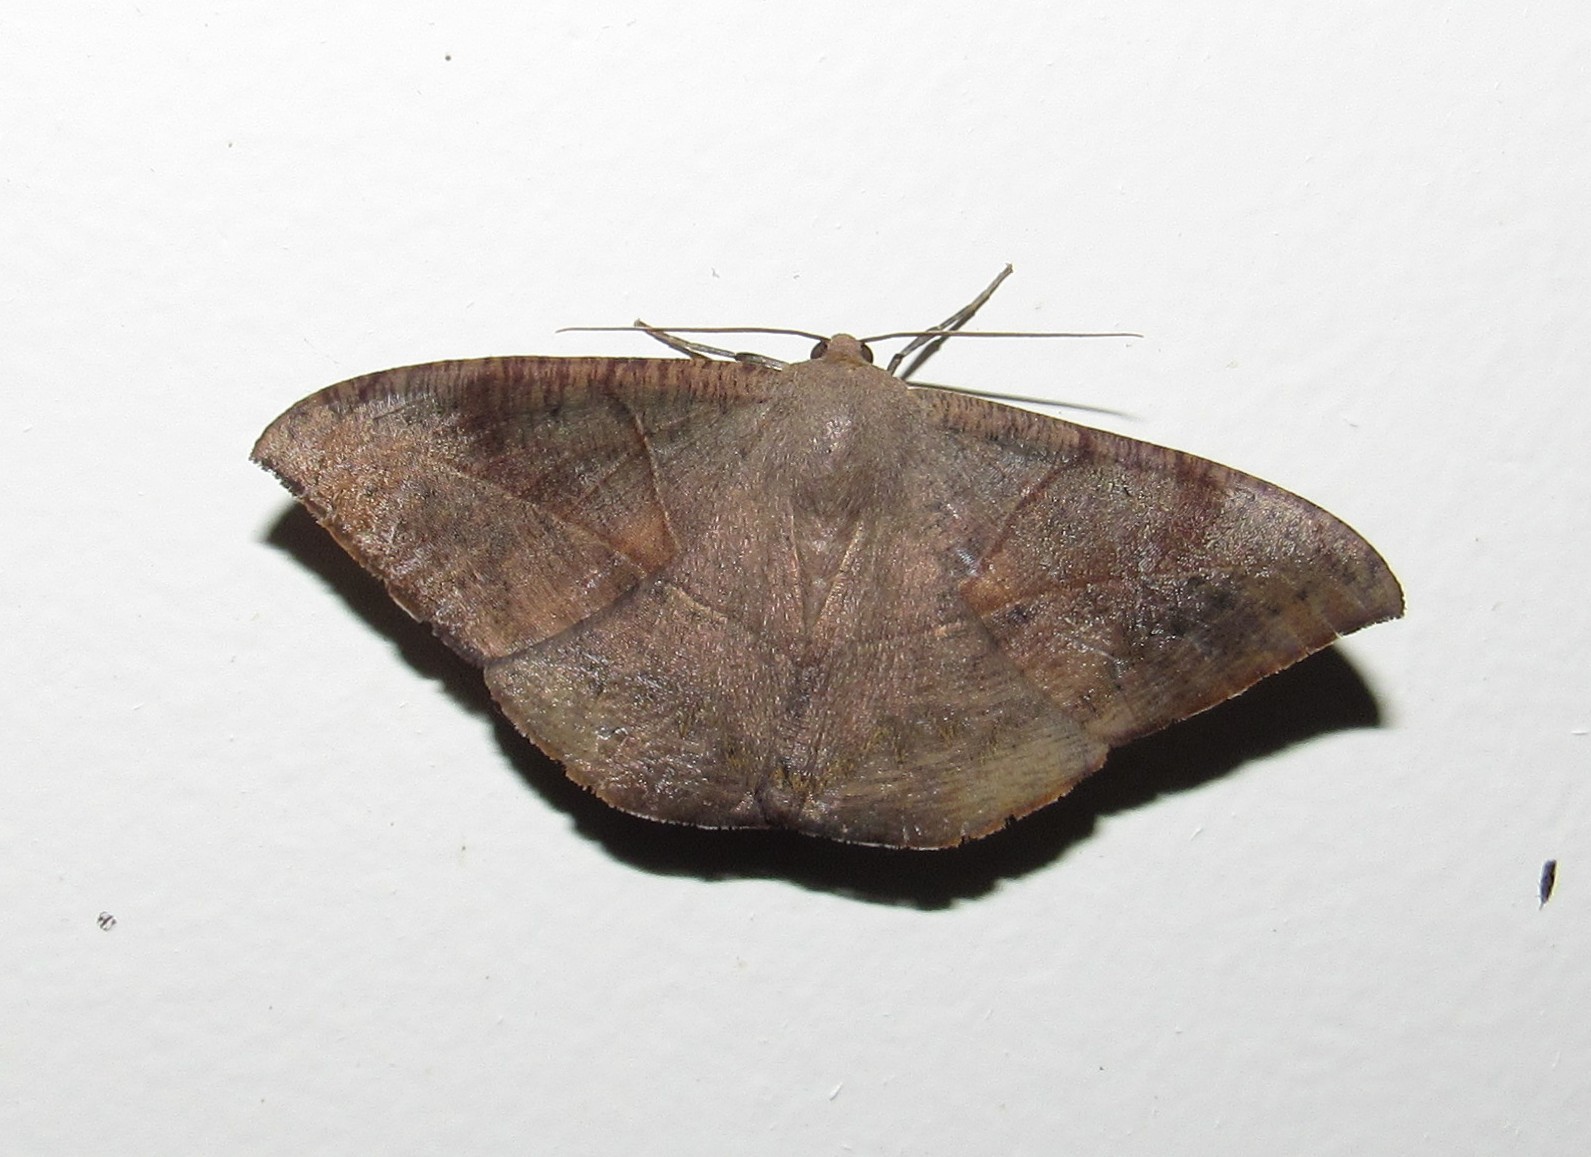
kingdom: Animalia
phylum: Arthropoda
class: Insecta
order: Lepidoptera
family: Geometridae
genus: Oxydia
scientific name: Oxydia trychiata
